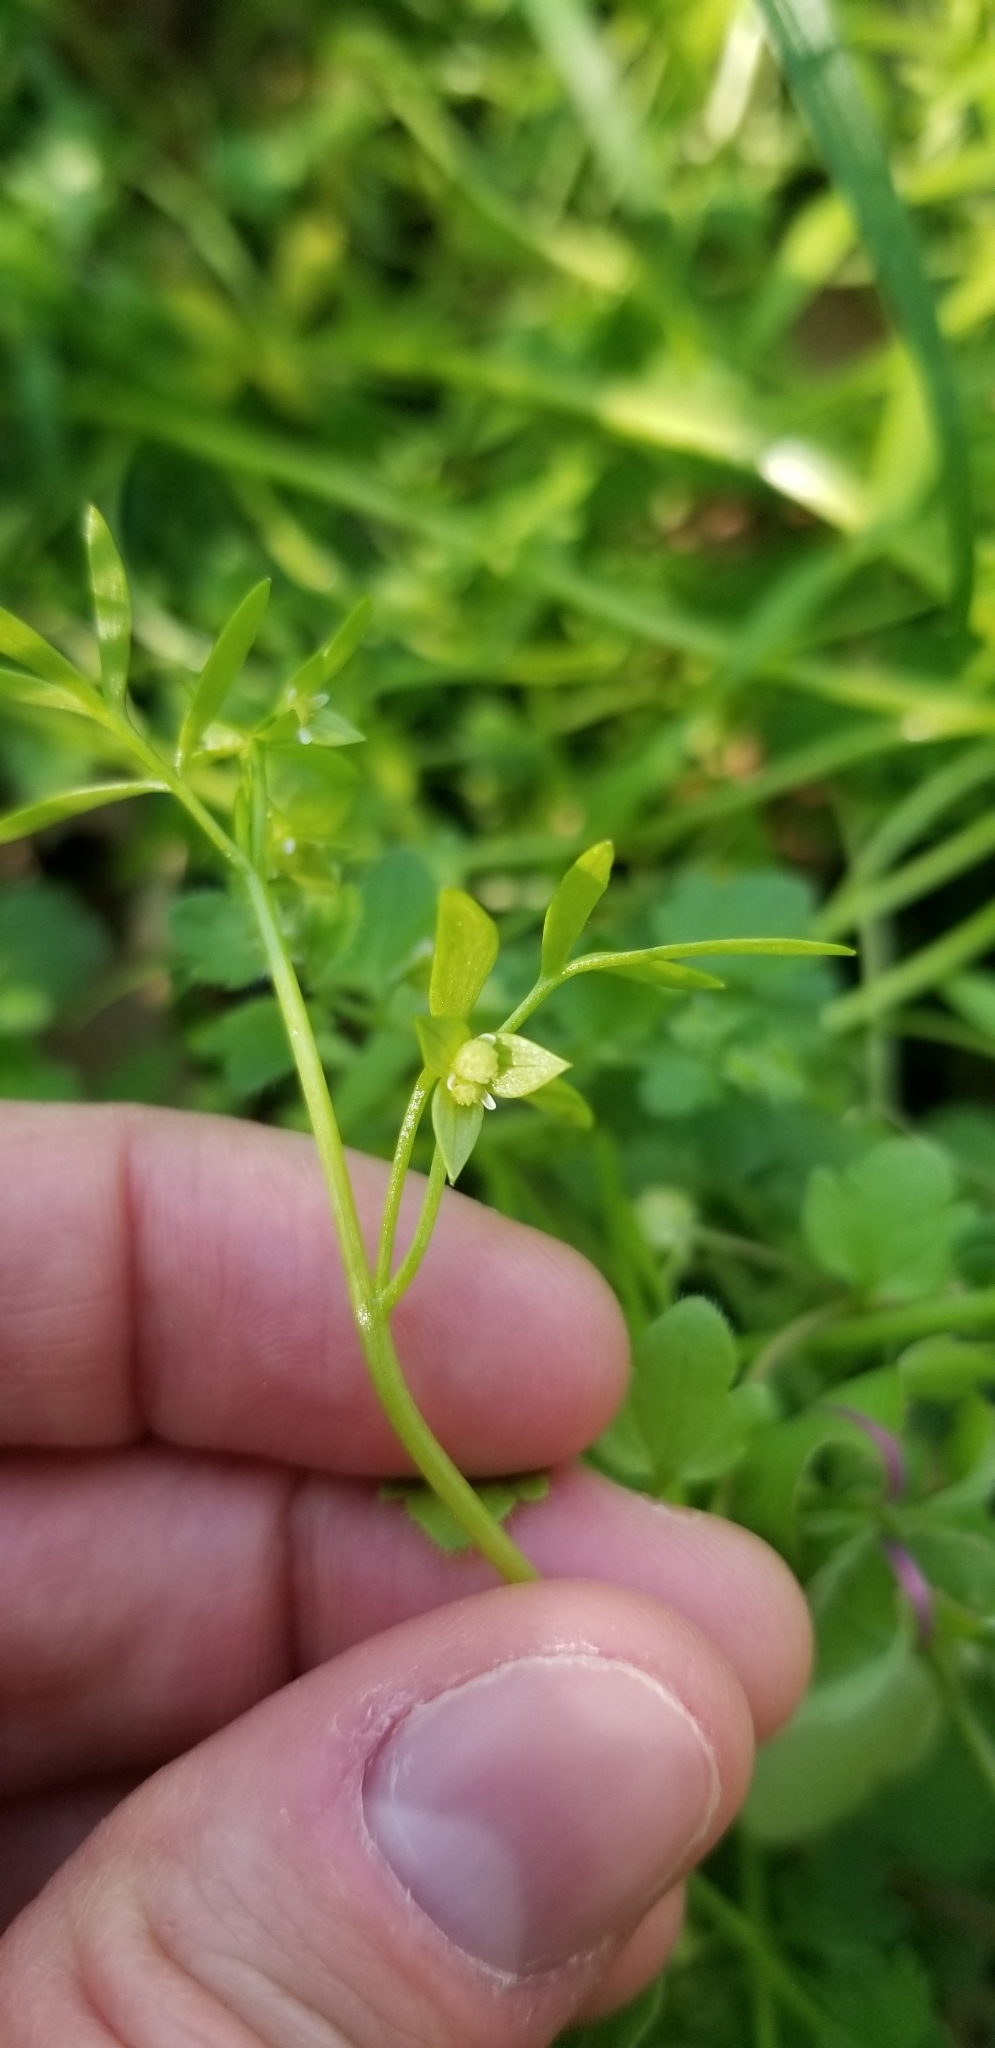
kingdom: Plantae
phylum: Tracheophyta
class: Magnoliopsida
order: Brassicales
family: Limnanthaceae
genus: Floerkea
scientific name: Floerkea proserpinacoides
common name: False mermaid
